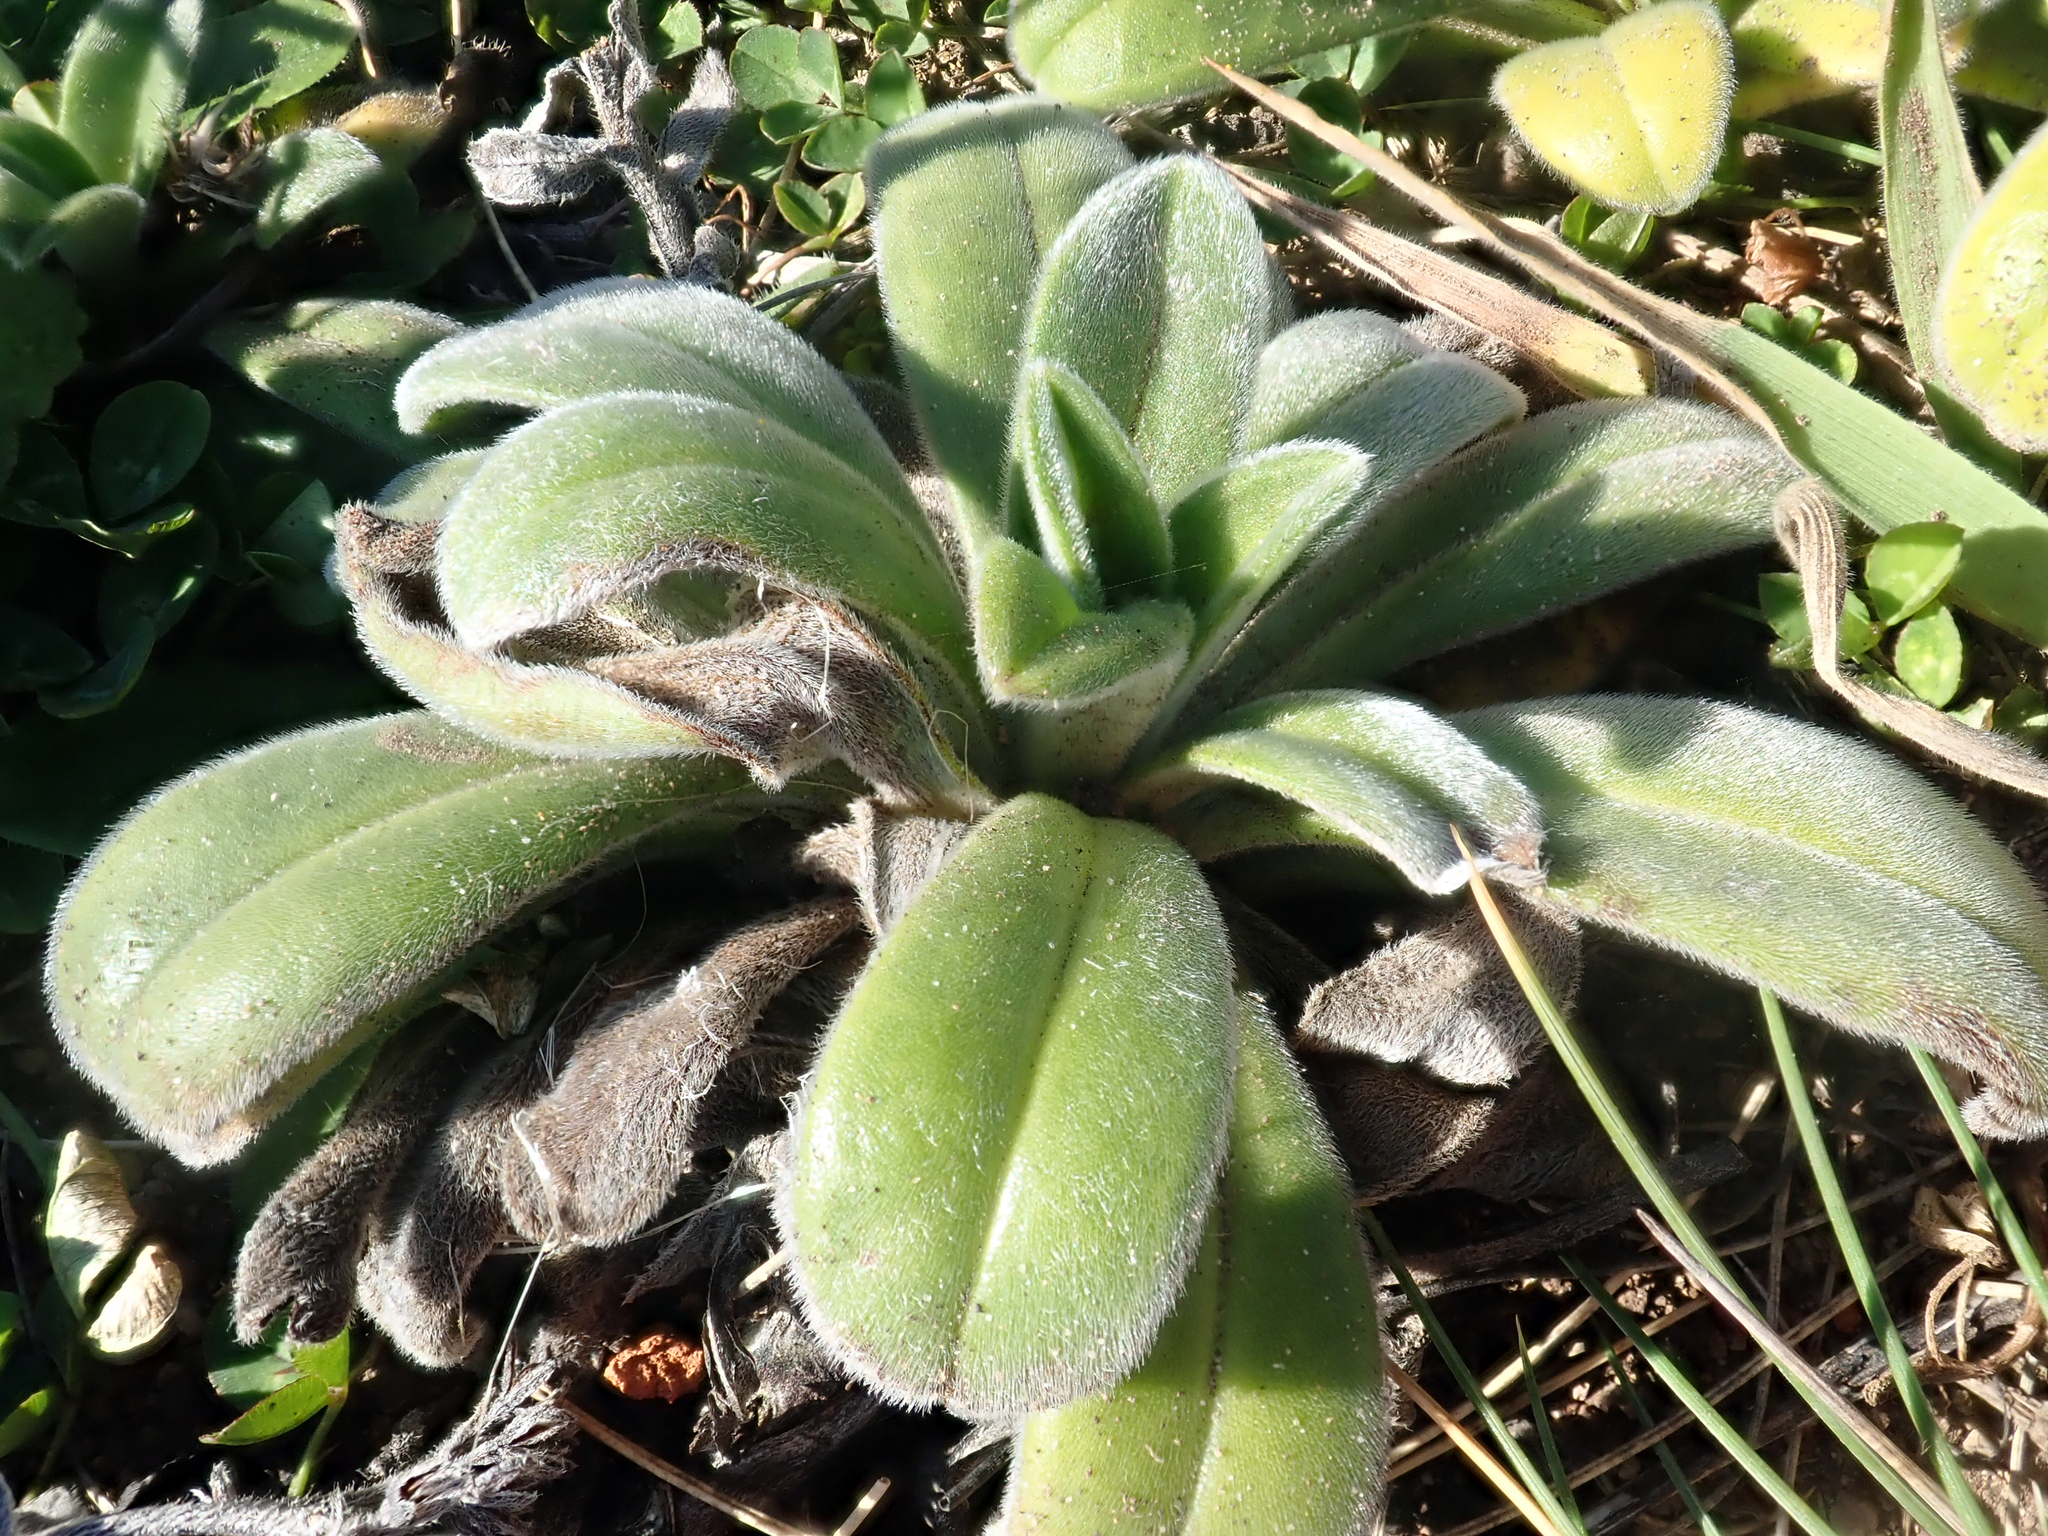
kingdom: Plantae
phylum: Tracheophyta
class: Magnoliopsida
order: Boraginales
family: Boraginaceae
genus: Myosotis
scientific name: Myosotis rakiura
